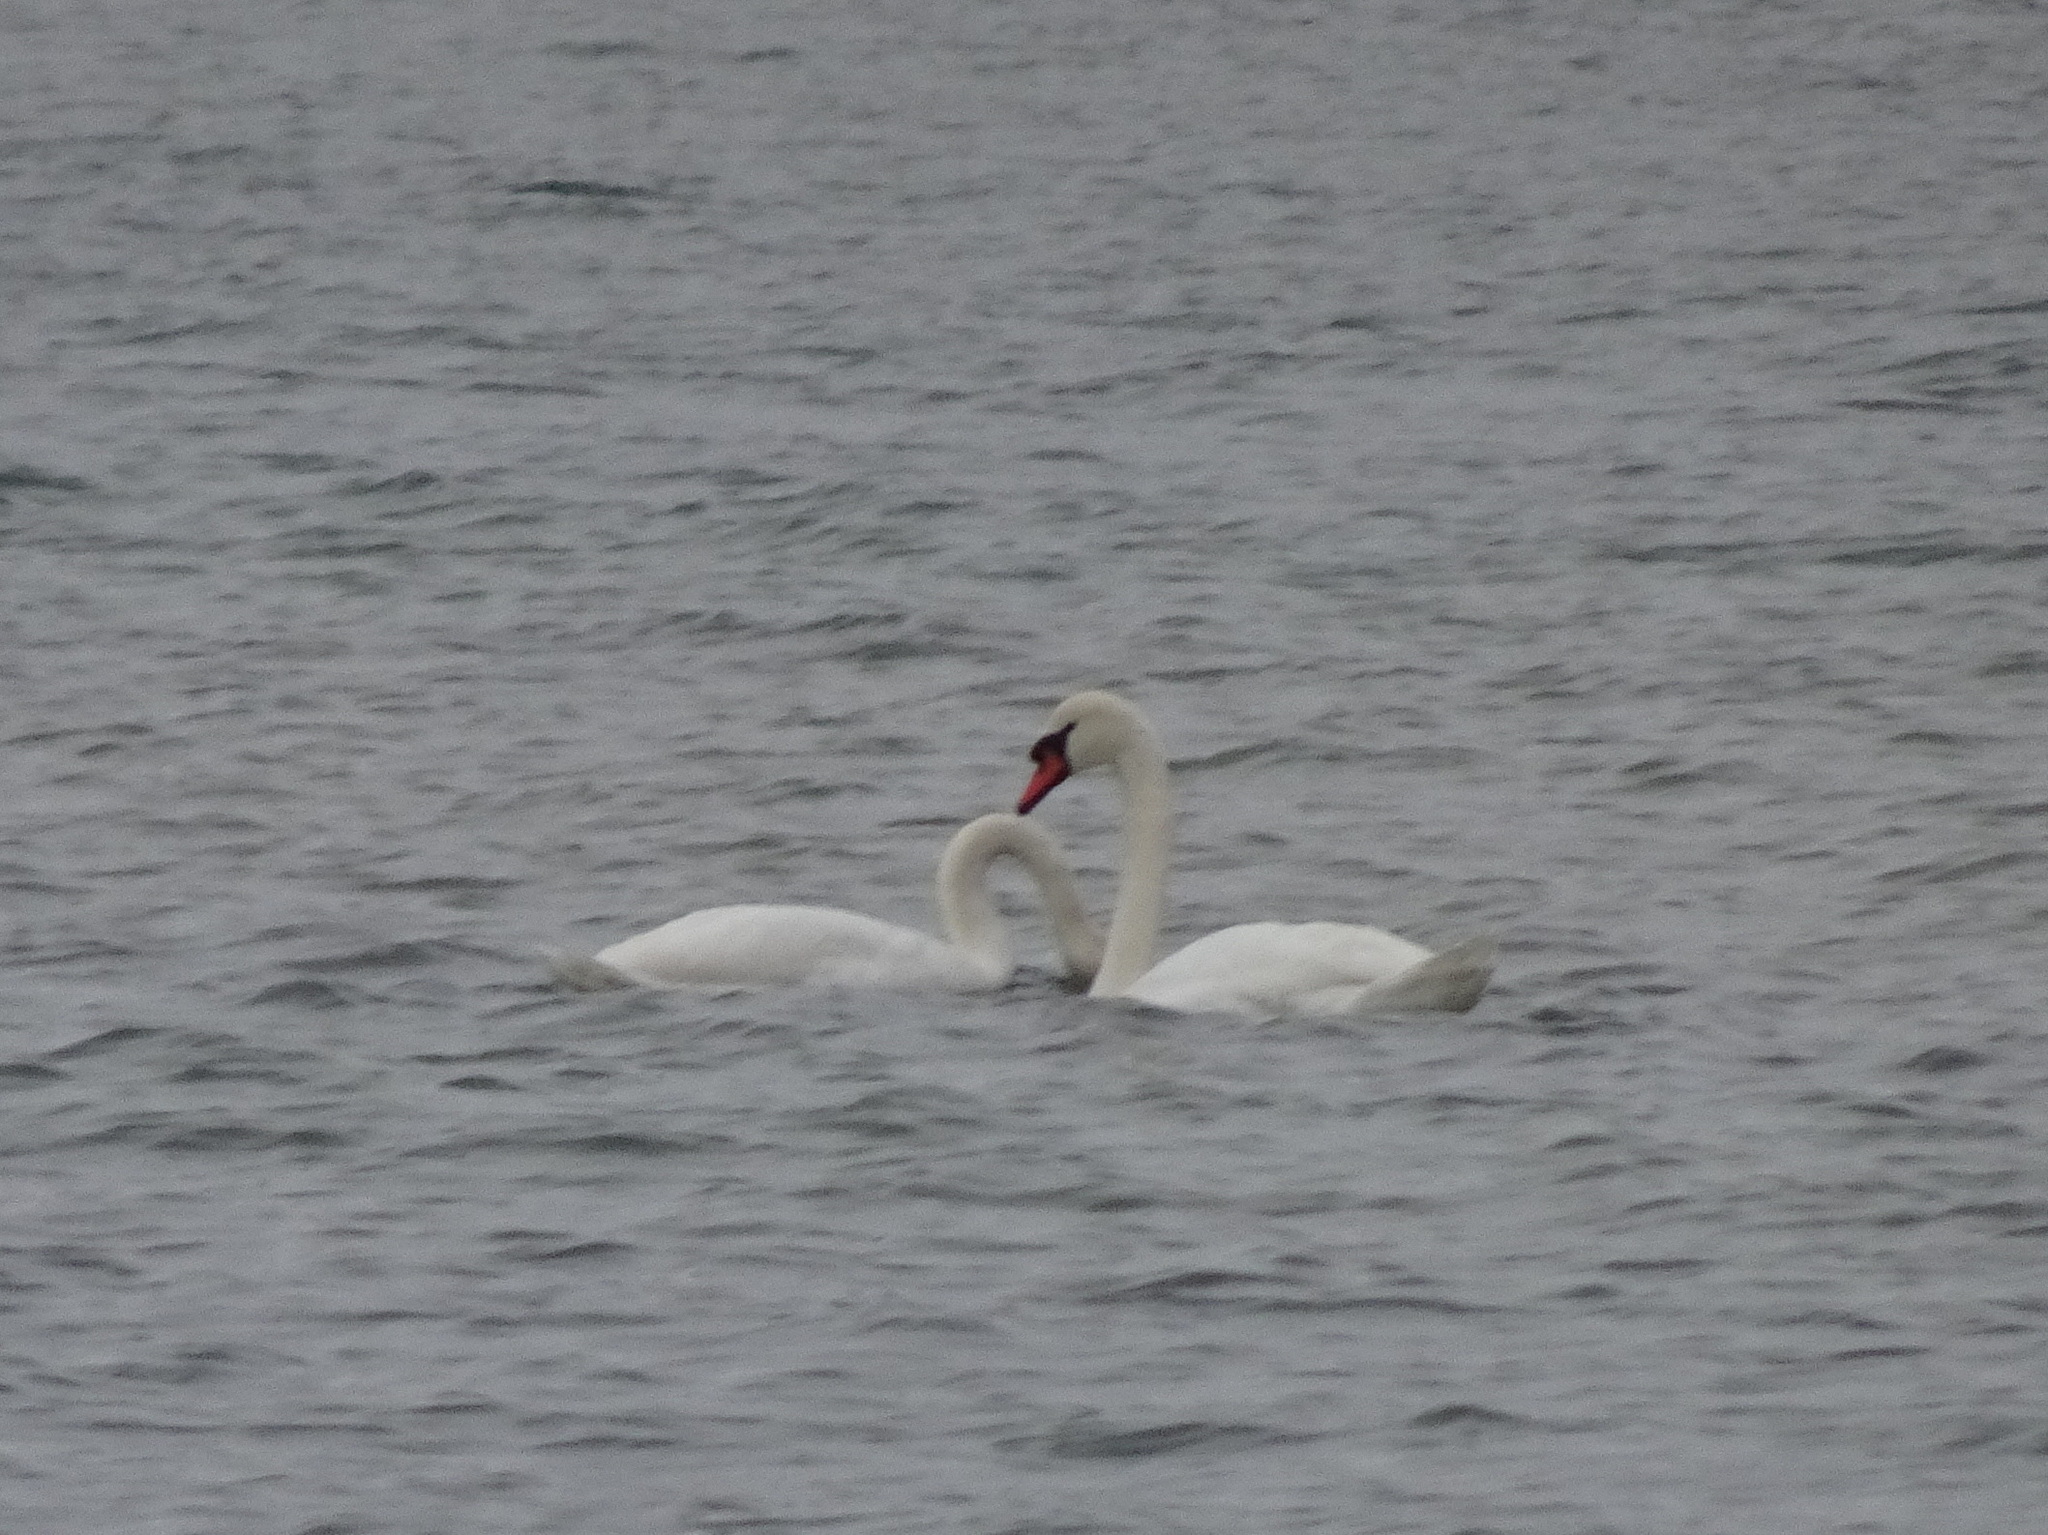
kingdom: Animalia
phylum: Chordata
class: Aves
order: Anseriformes
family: Anatidae
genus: Cygnus
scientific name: Cygnus olor
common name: Mute swan
